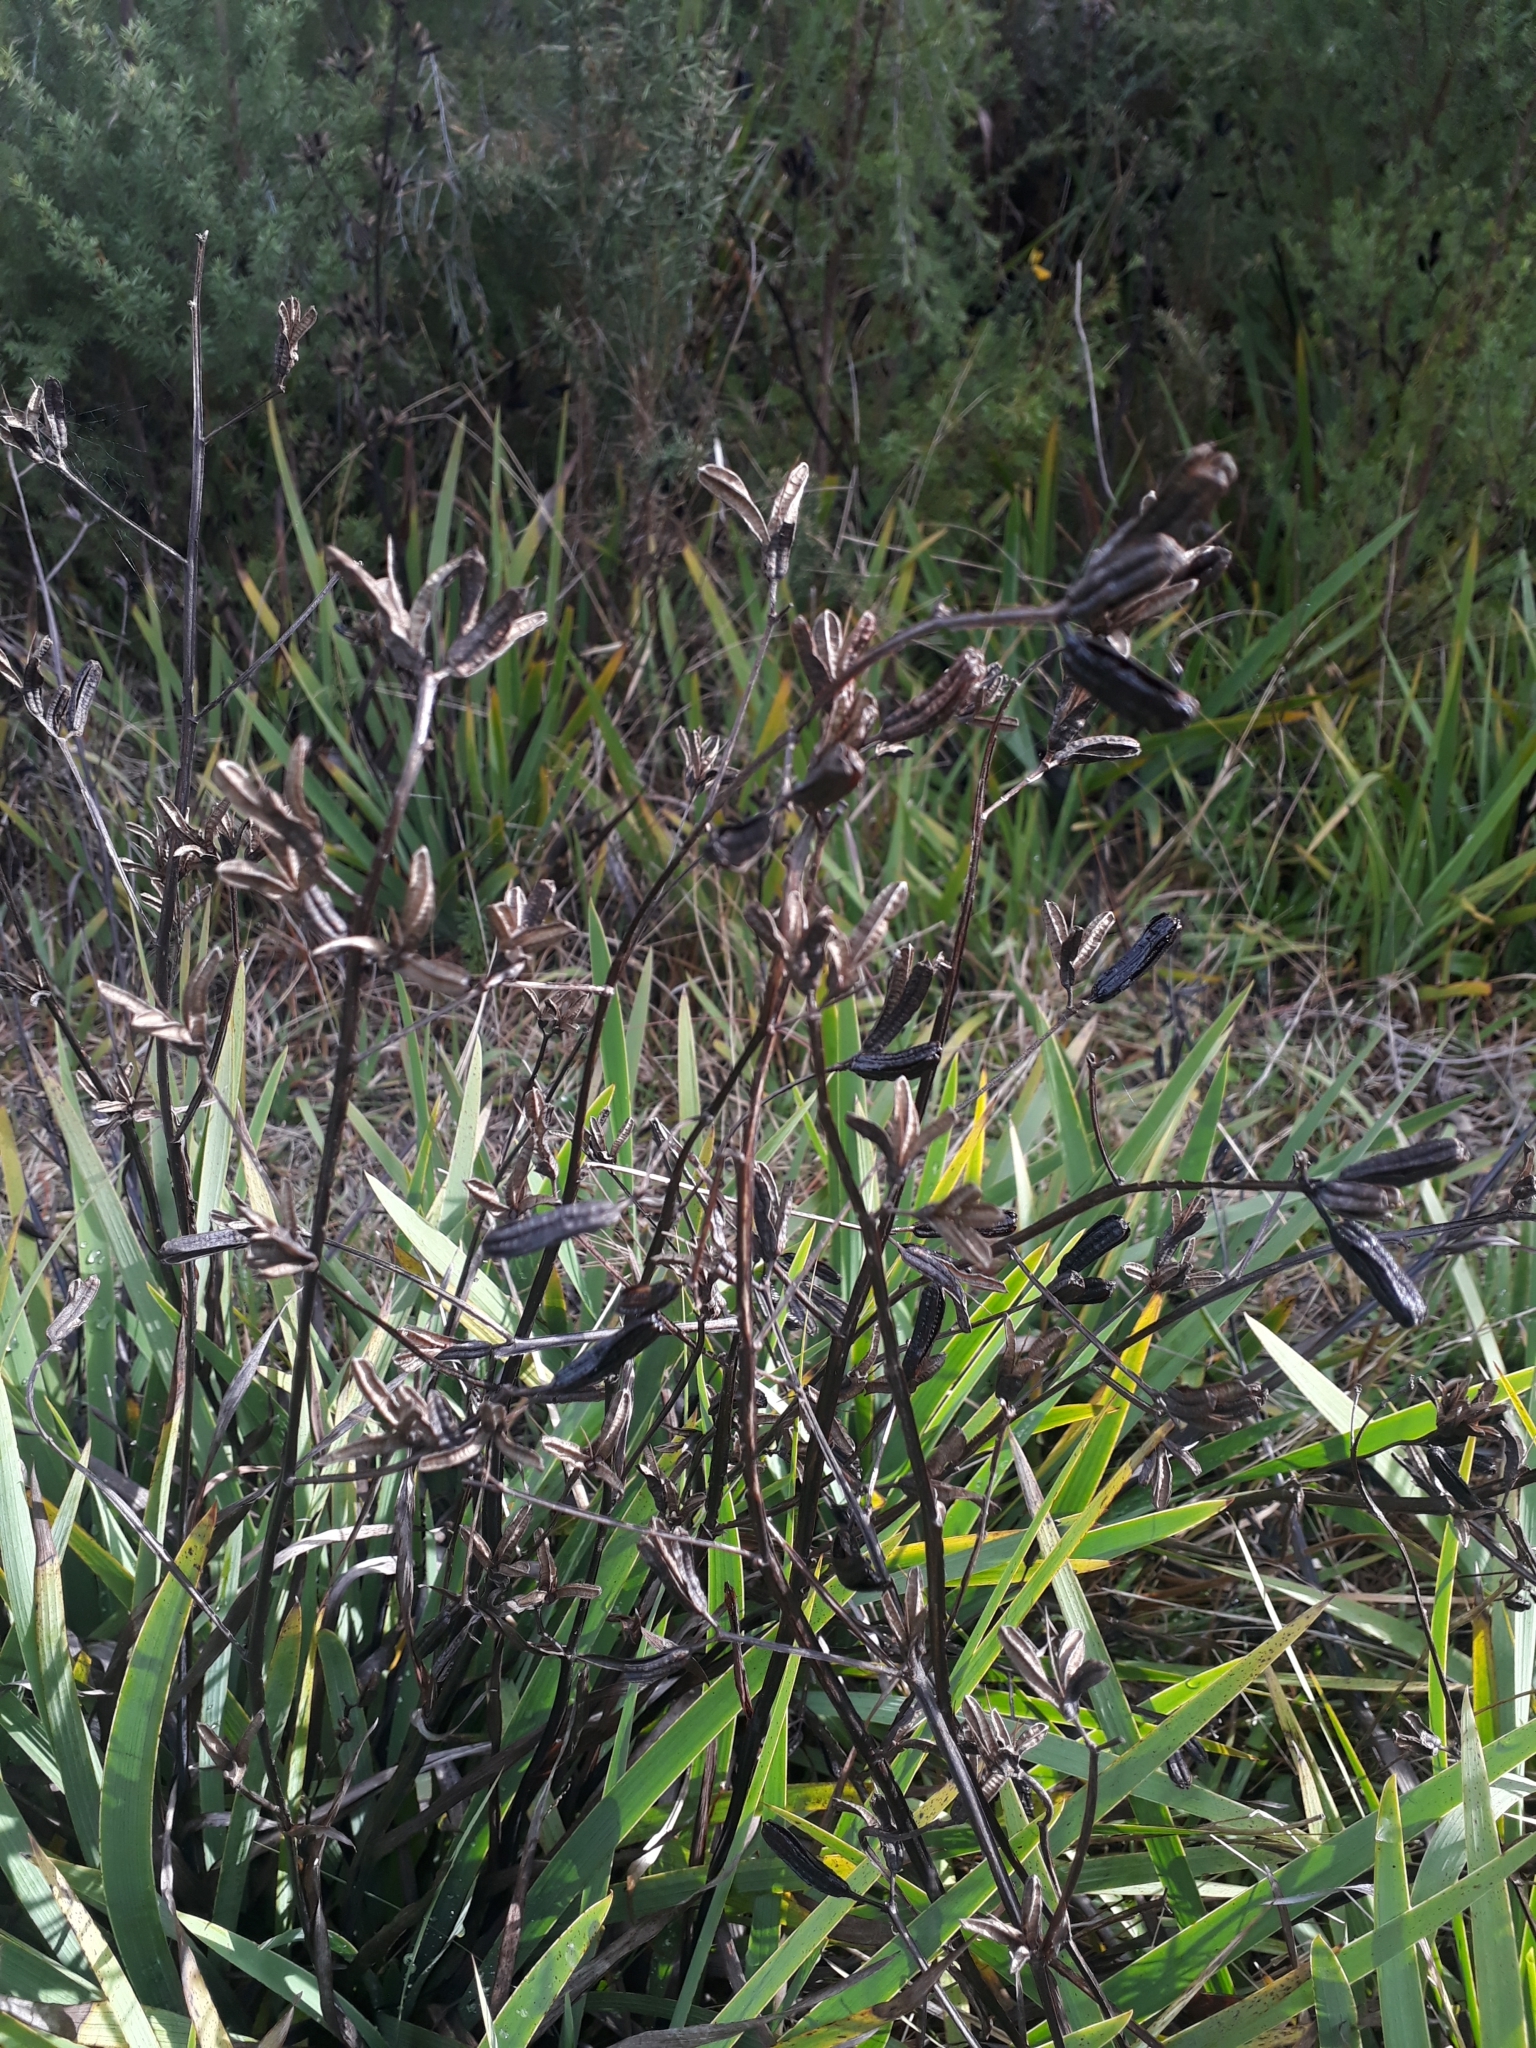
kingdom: Plantae
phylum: Tracheophyta
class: Liliopsida
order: Asparagales
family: Iridaceae
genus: Aristea
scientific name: Aristea ecklonii
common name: Blue corn-lily
